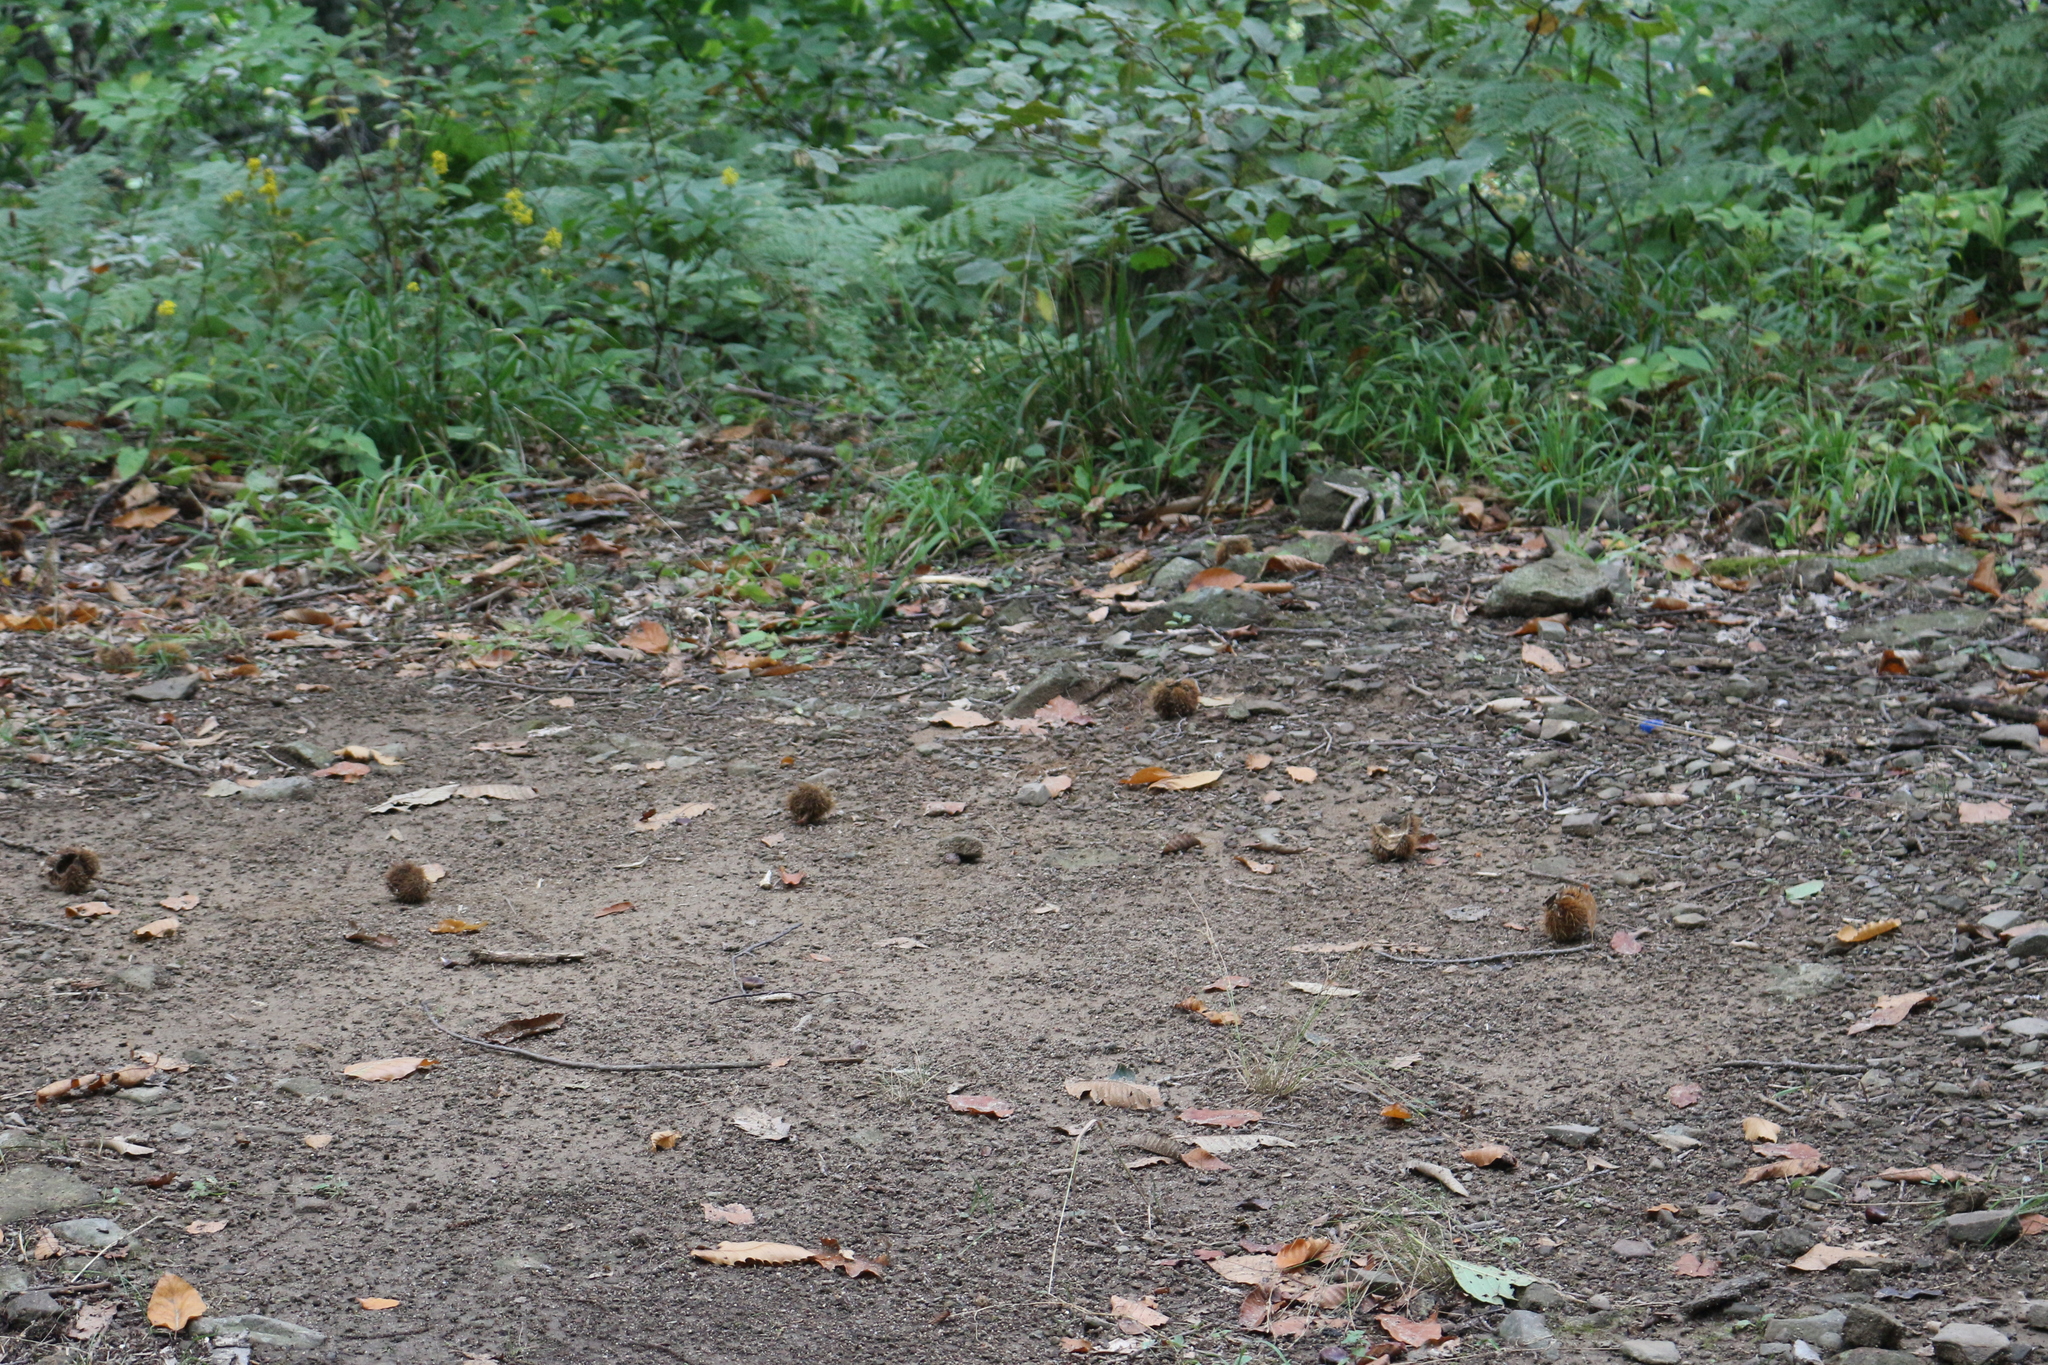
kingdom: Plantae
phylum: Tracheophyta
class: Magnoliopsida
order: Fagales
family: Fagaceae
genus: Castanea
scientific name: Castanea sativa
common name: Sweet chestnut
